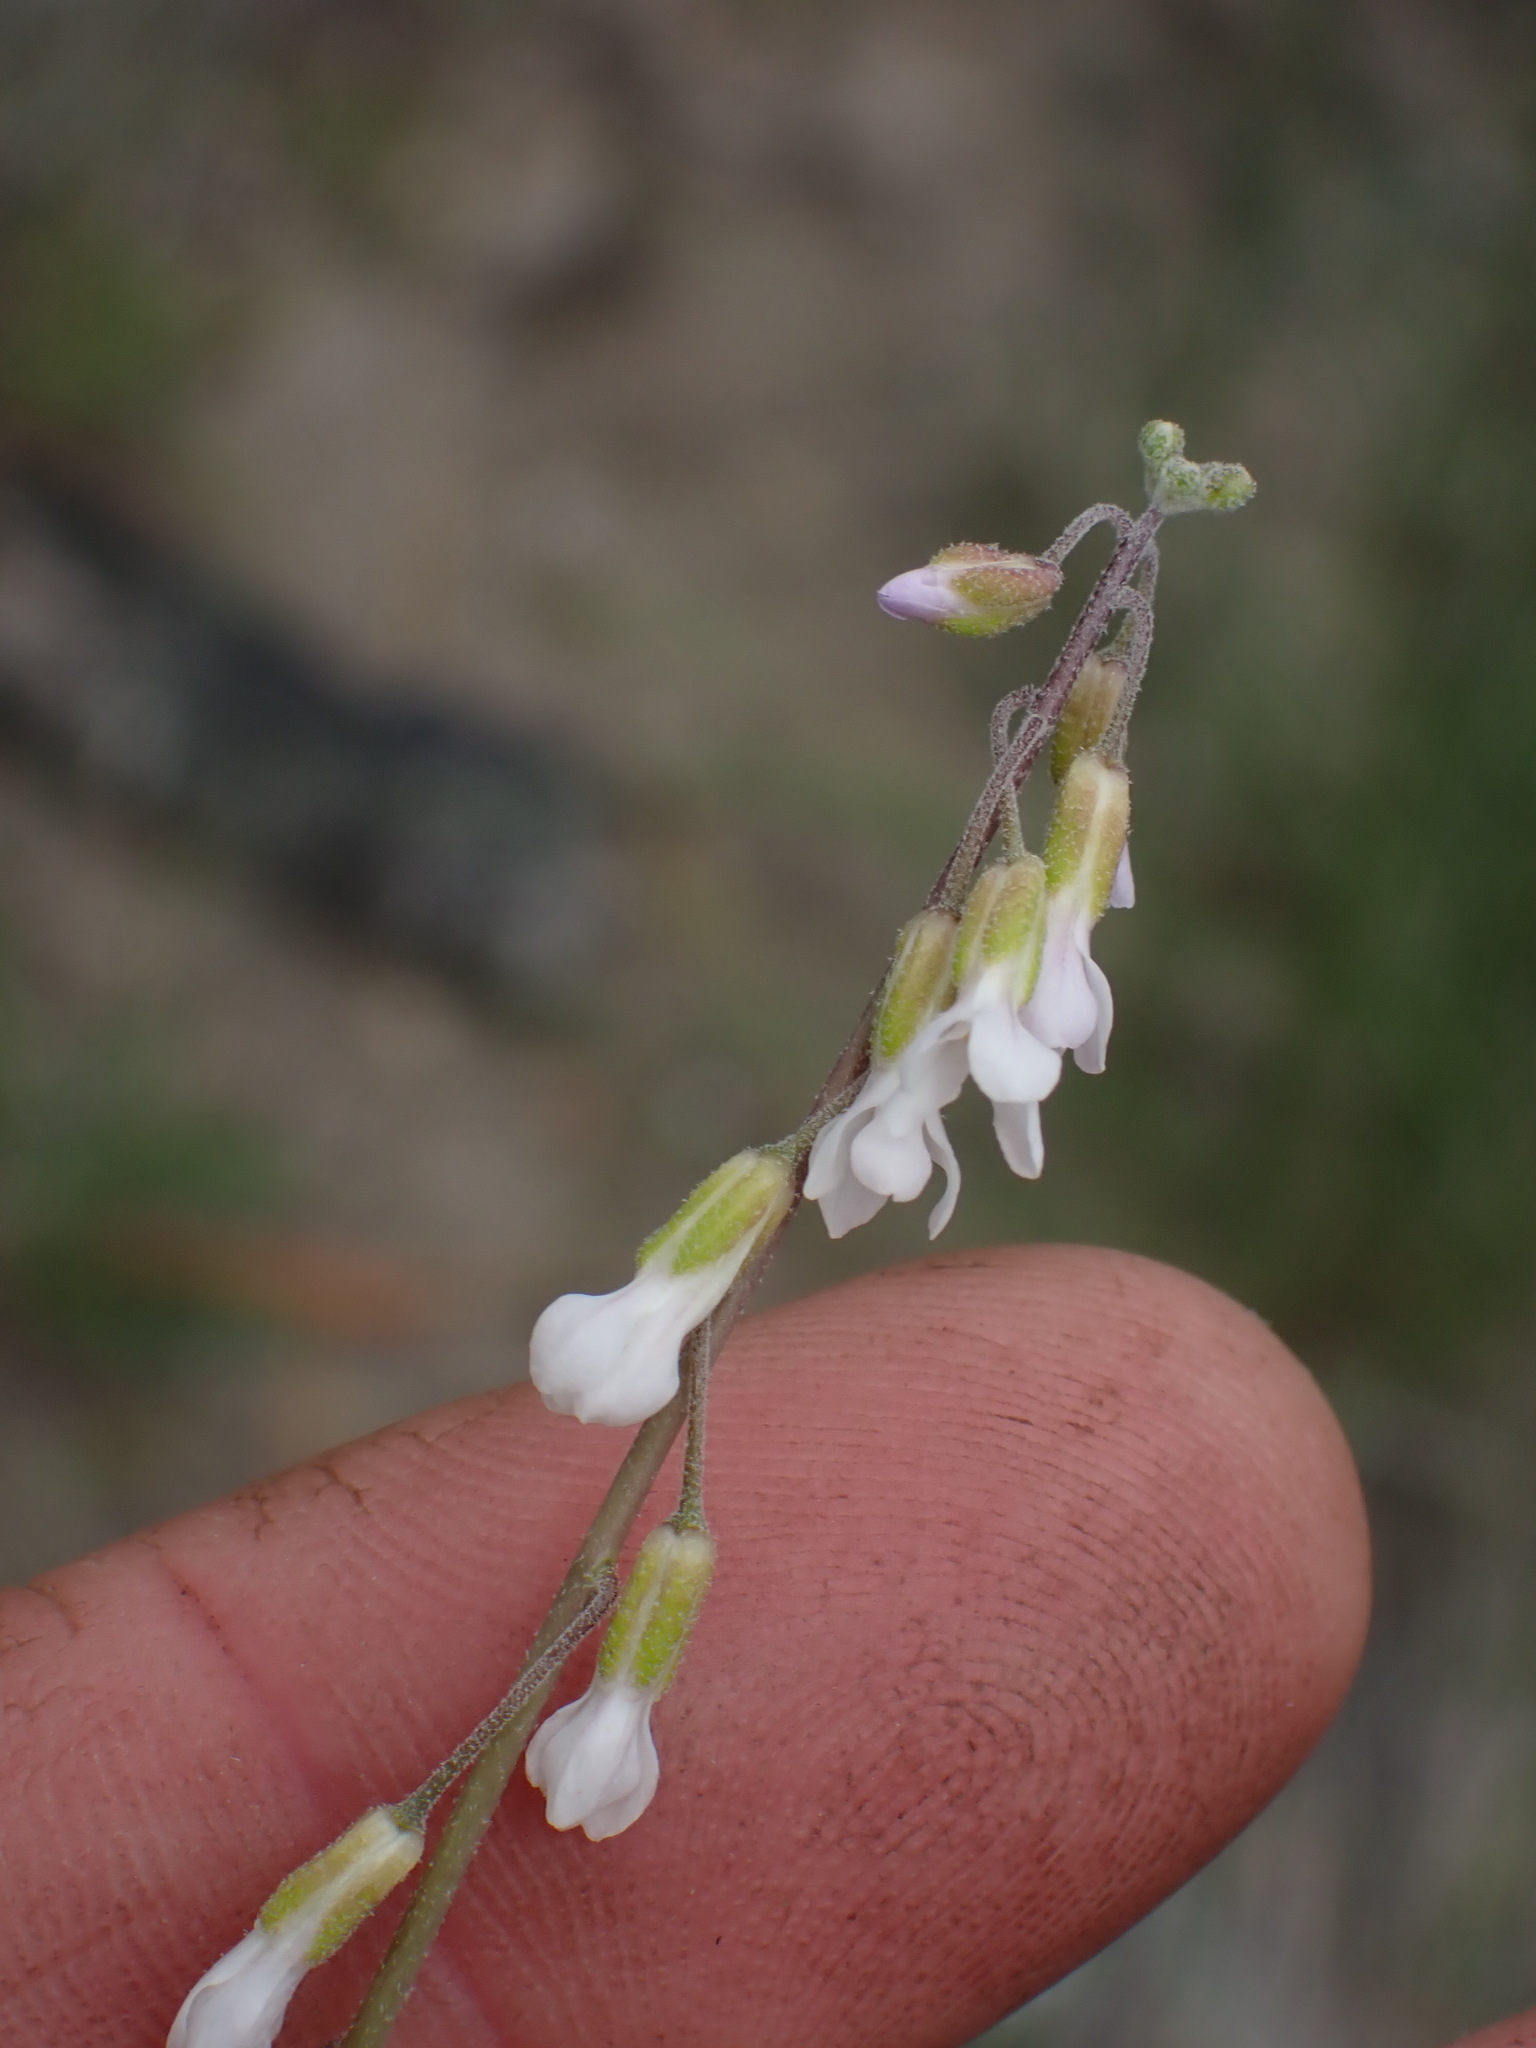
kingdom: Plantae
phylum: Tracheophyta
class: Magnoliopsida
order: Brassicales
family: Brassicaceae
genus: Boechera
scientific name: Boechera retrofracta
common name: Dangling suncress
